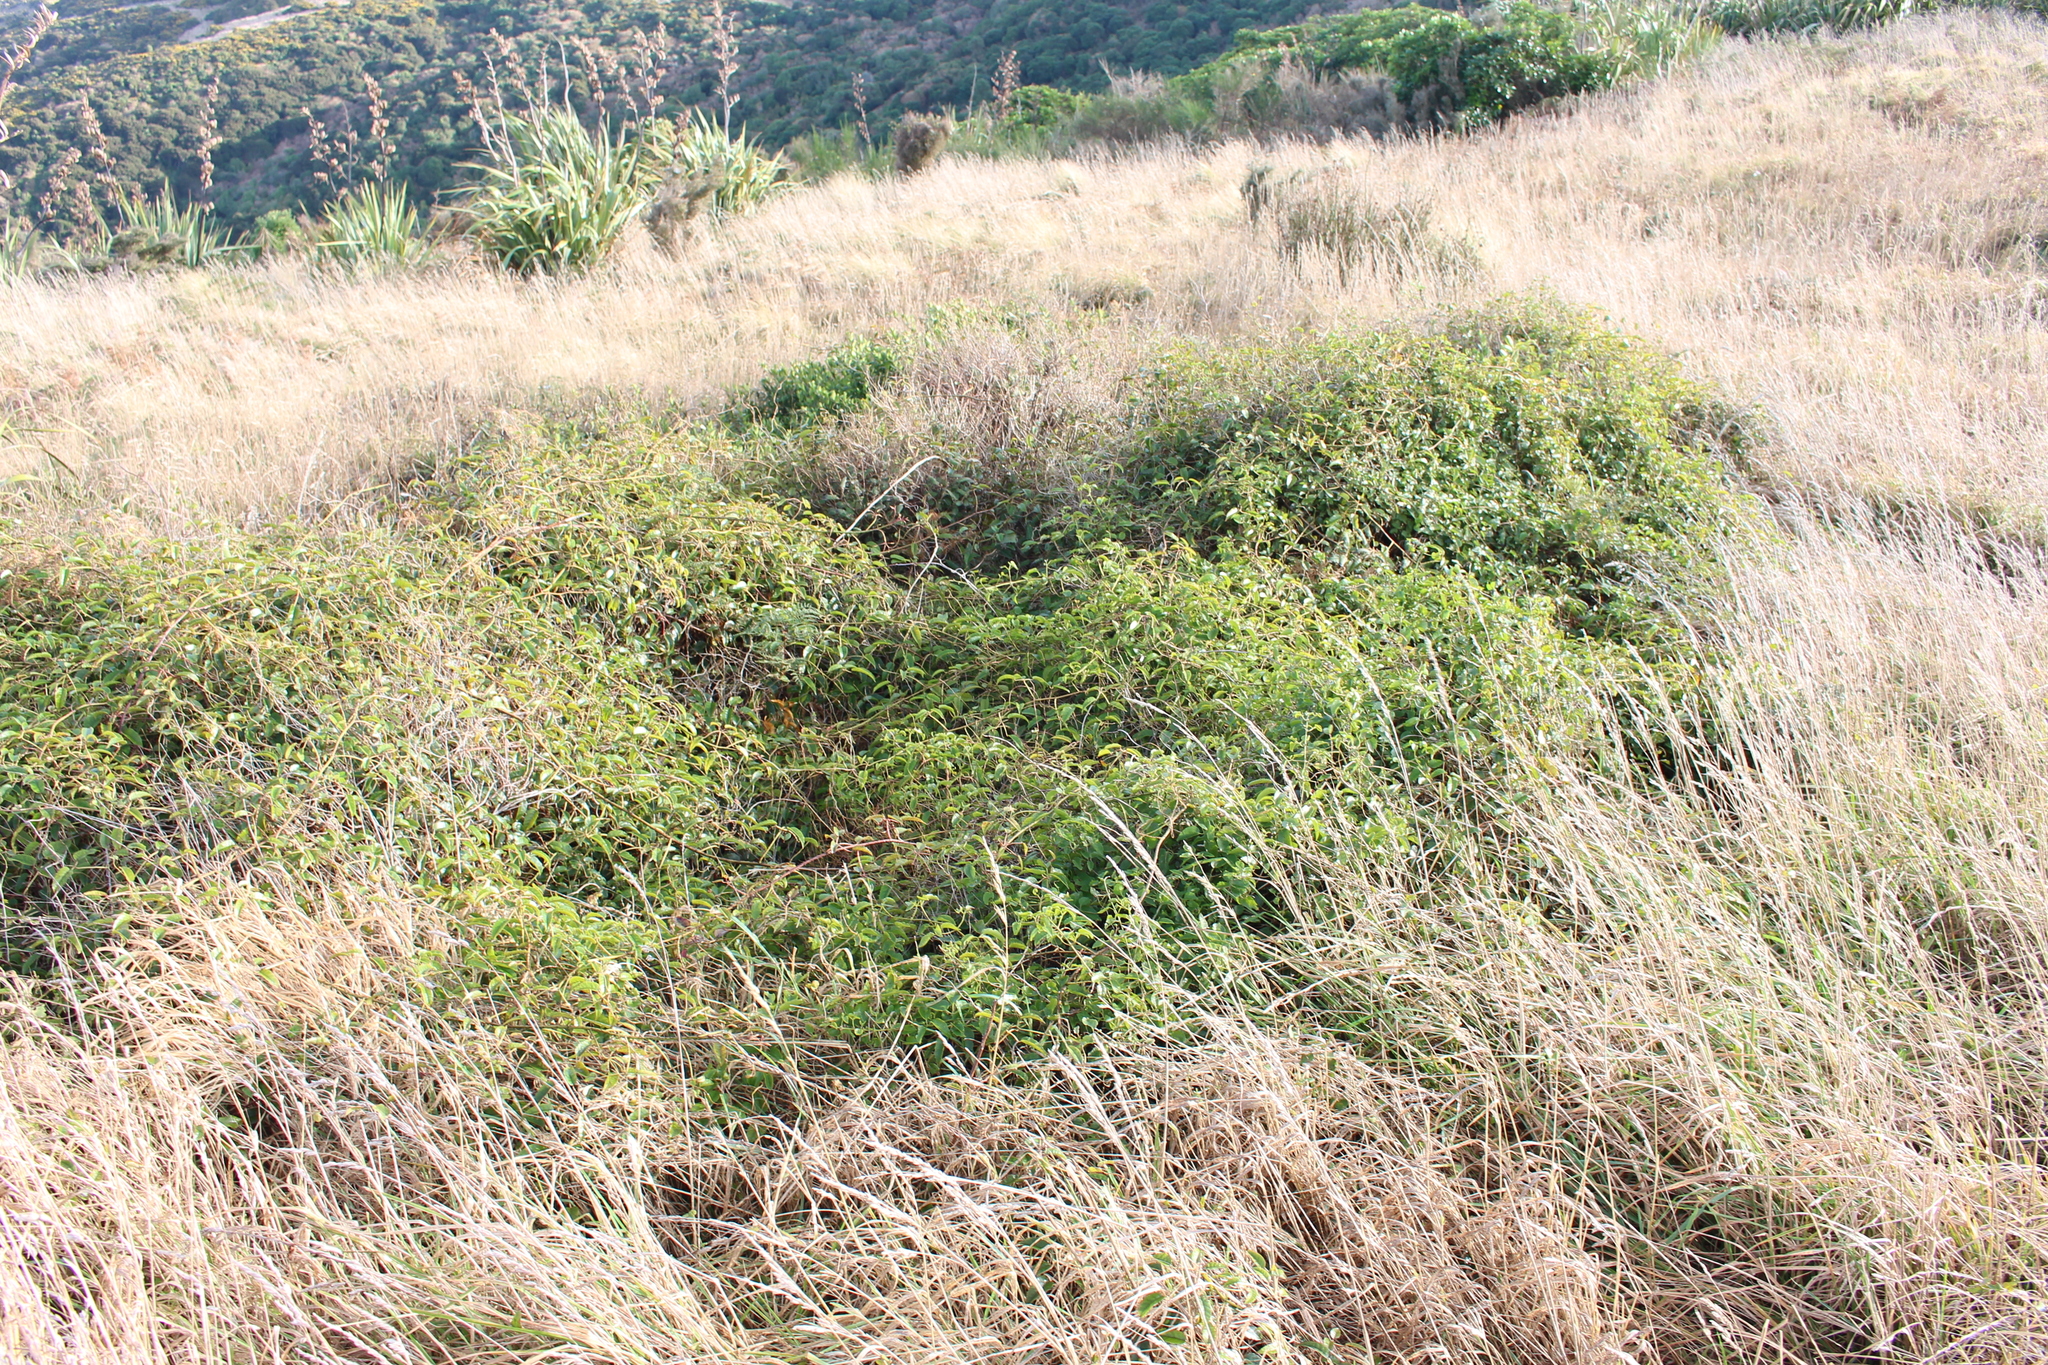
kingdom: Plantae
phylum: Tracheophyta
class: Magnoliopsida
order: Rosales
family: Rosaceae
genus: Rubus
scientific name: Rubus cissoides
